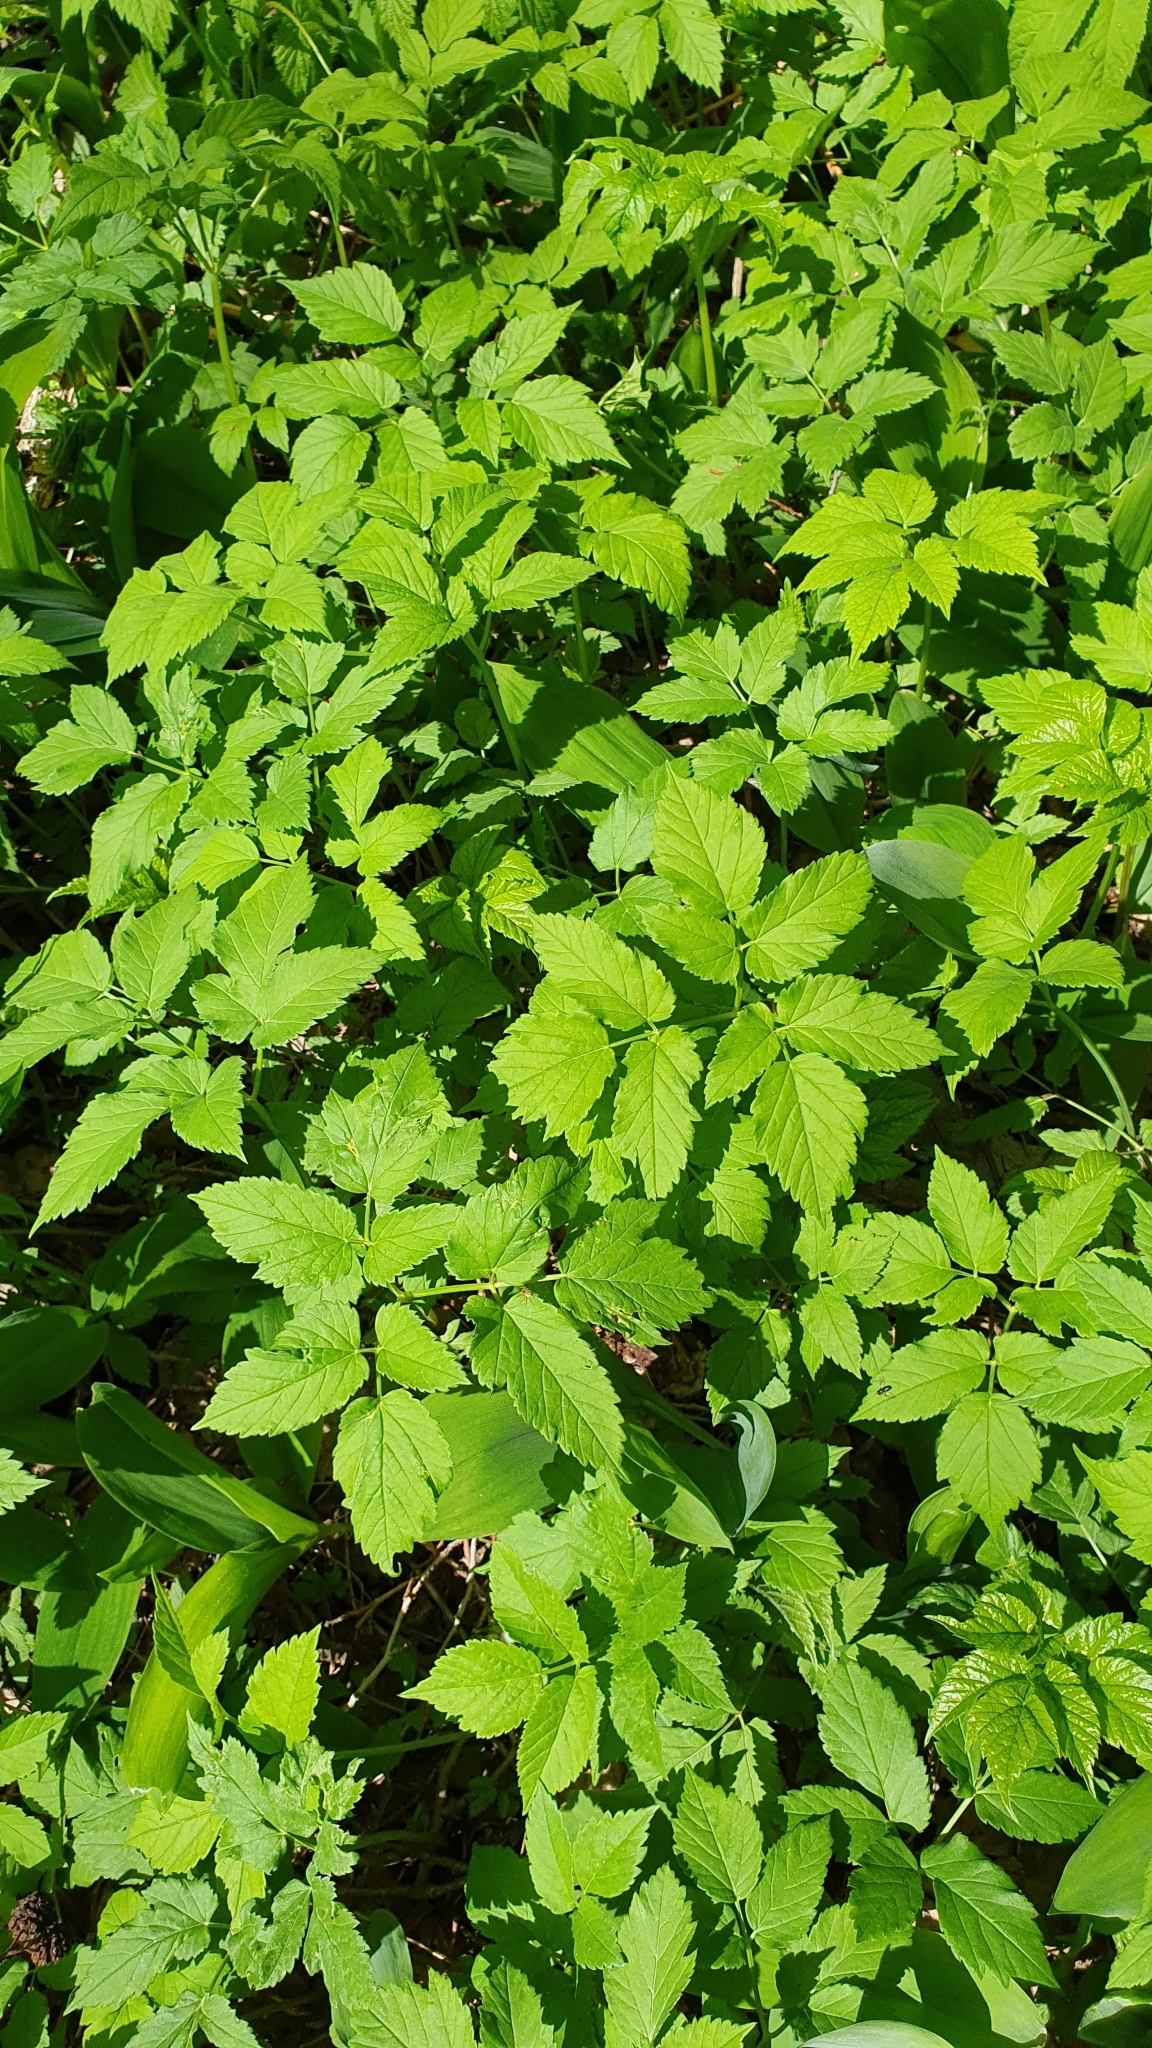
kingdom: Plantae
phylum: Tracheophyta
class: Magnoliopsida
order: Apiales
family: Apiaceae
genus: Aegopodium
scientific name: Aegopodium podagraria
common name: Ground-elder
